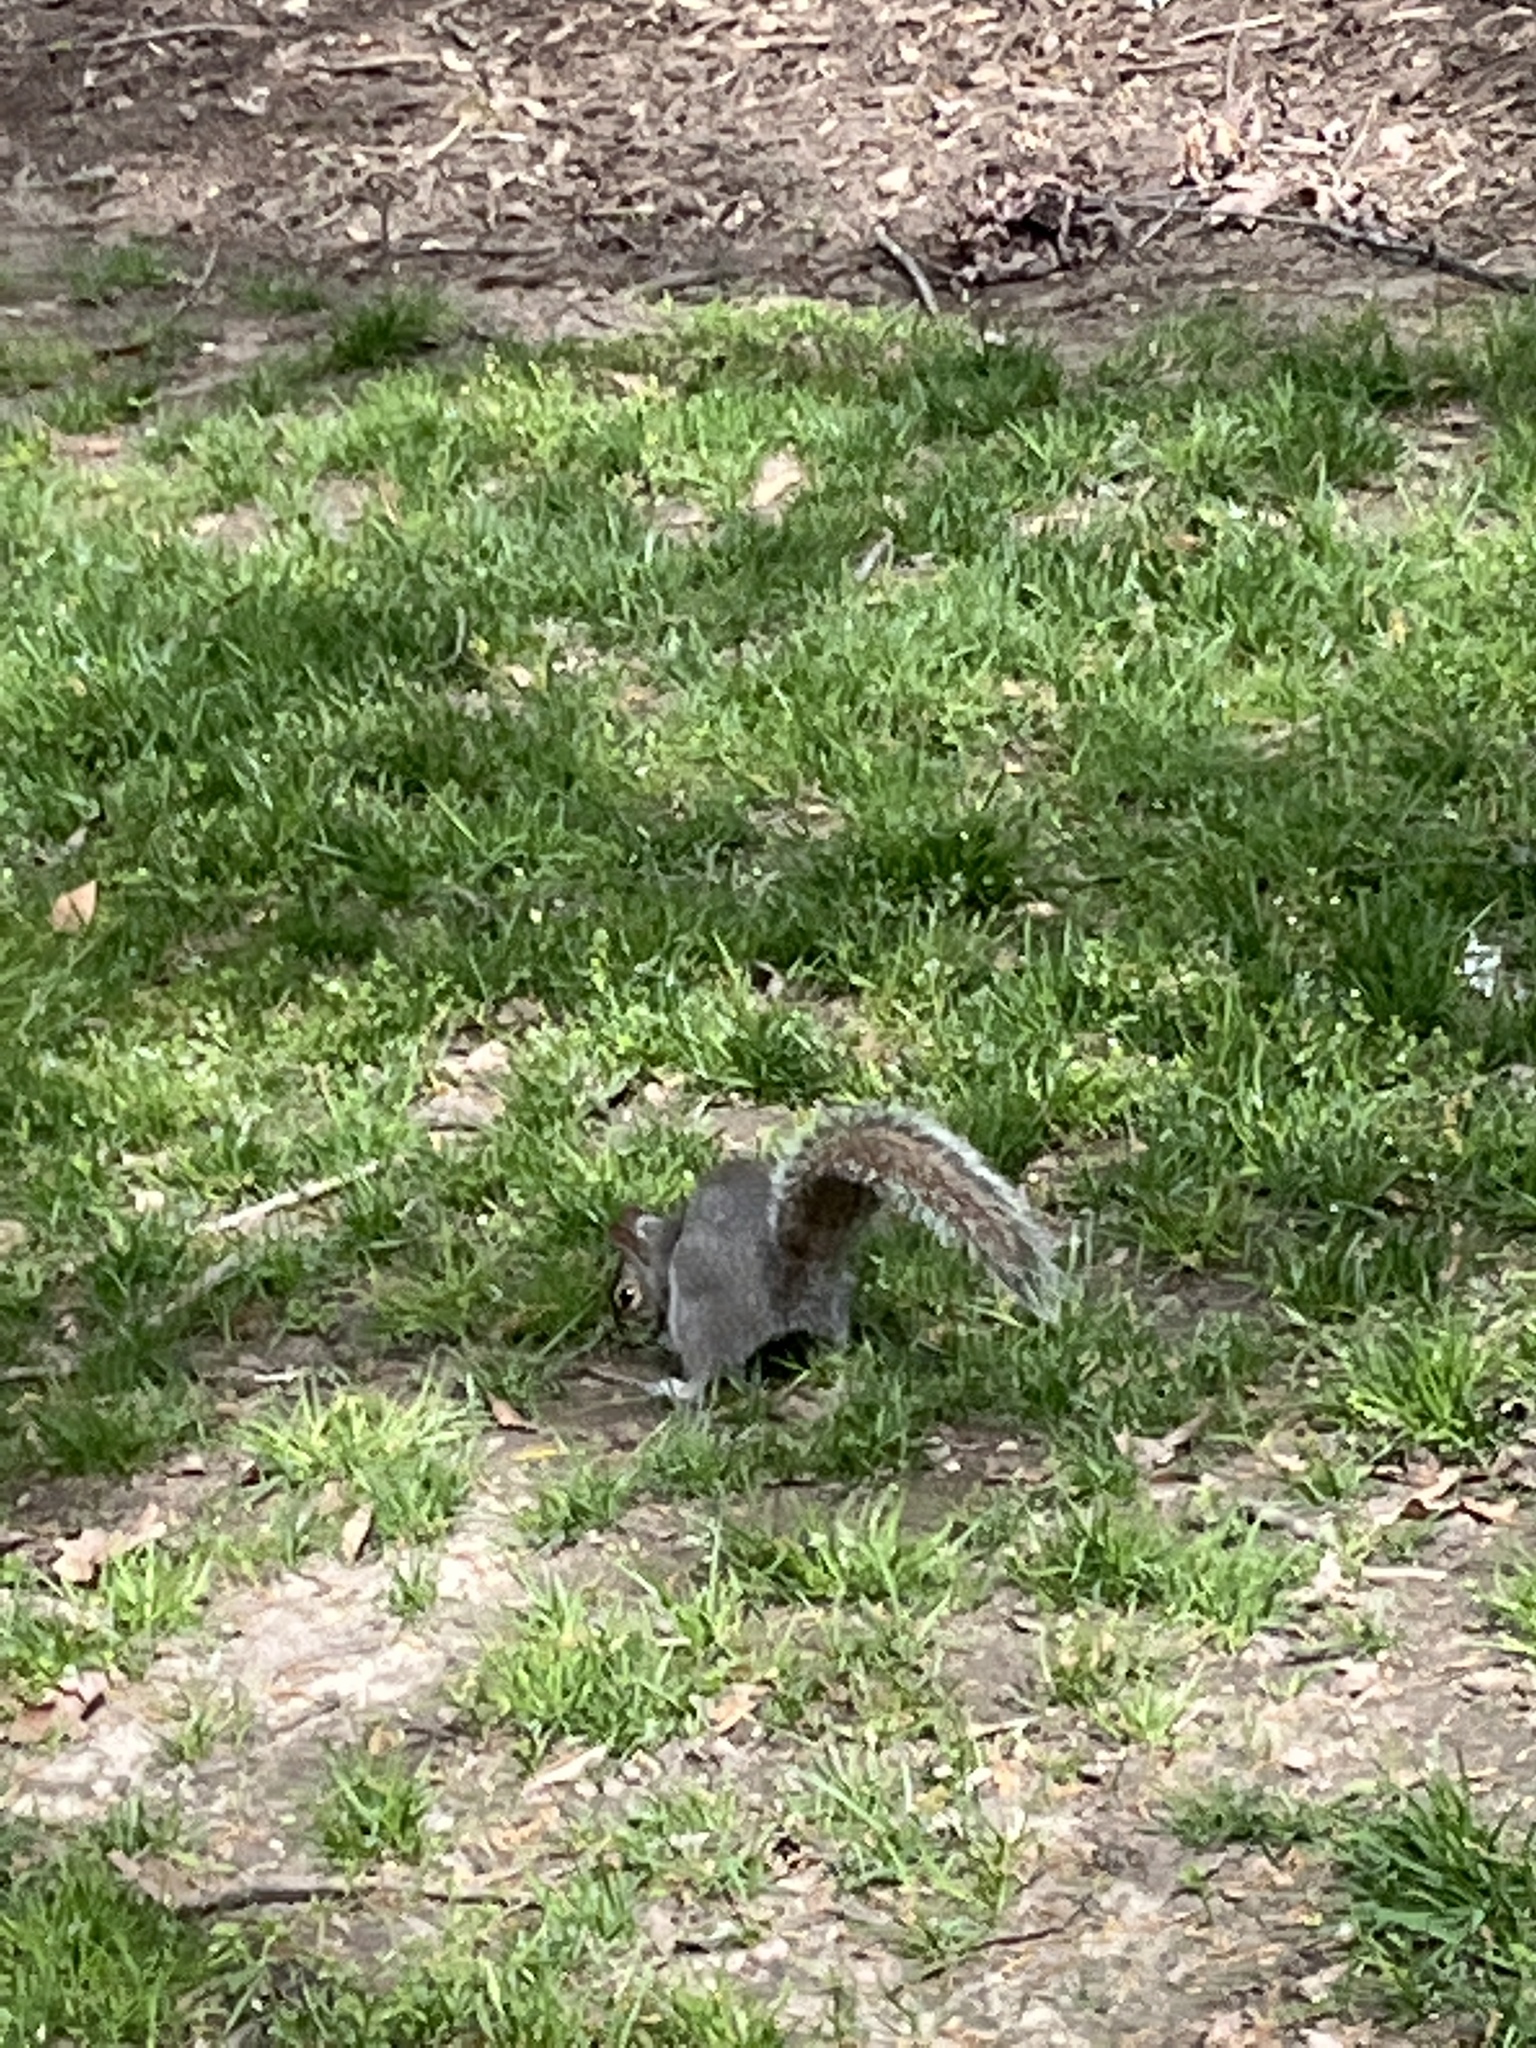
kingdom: Animalia
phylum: Chordata
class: Mammalia
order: Rodentia
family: Sciuridae
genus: Sciurus
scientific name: Sciurus carolinensis
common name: Eastern gray squirrel
